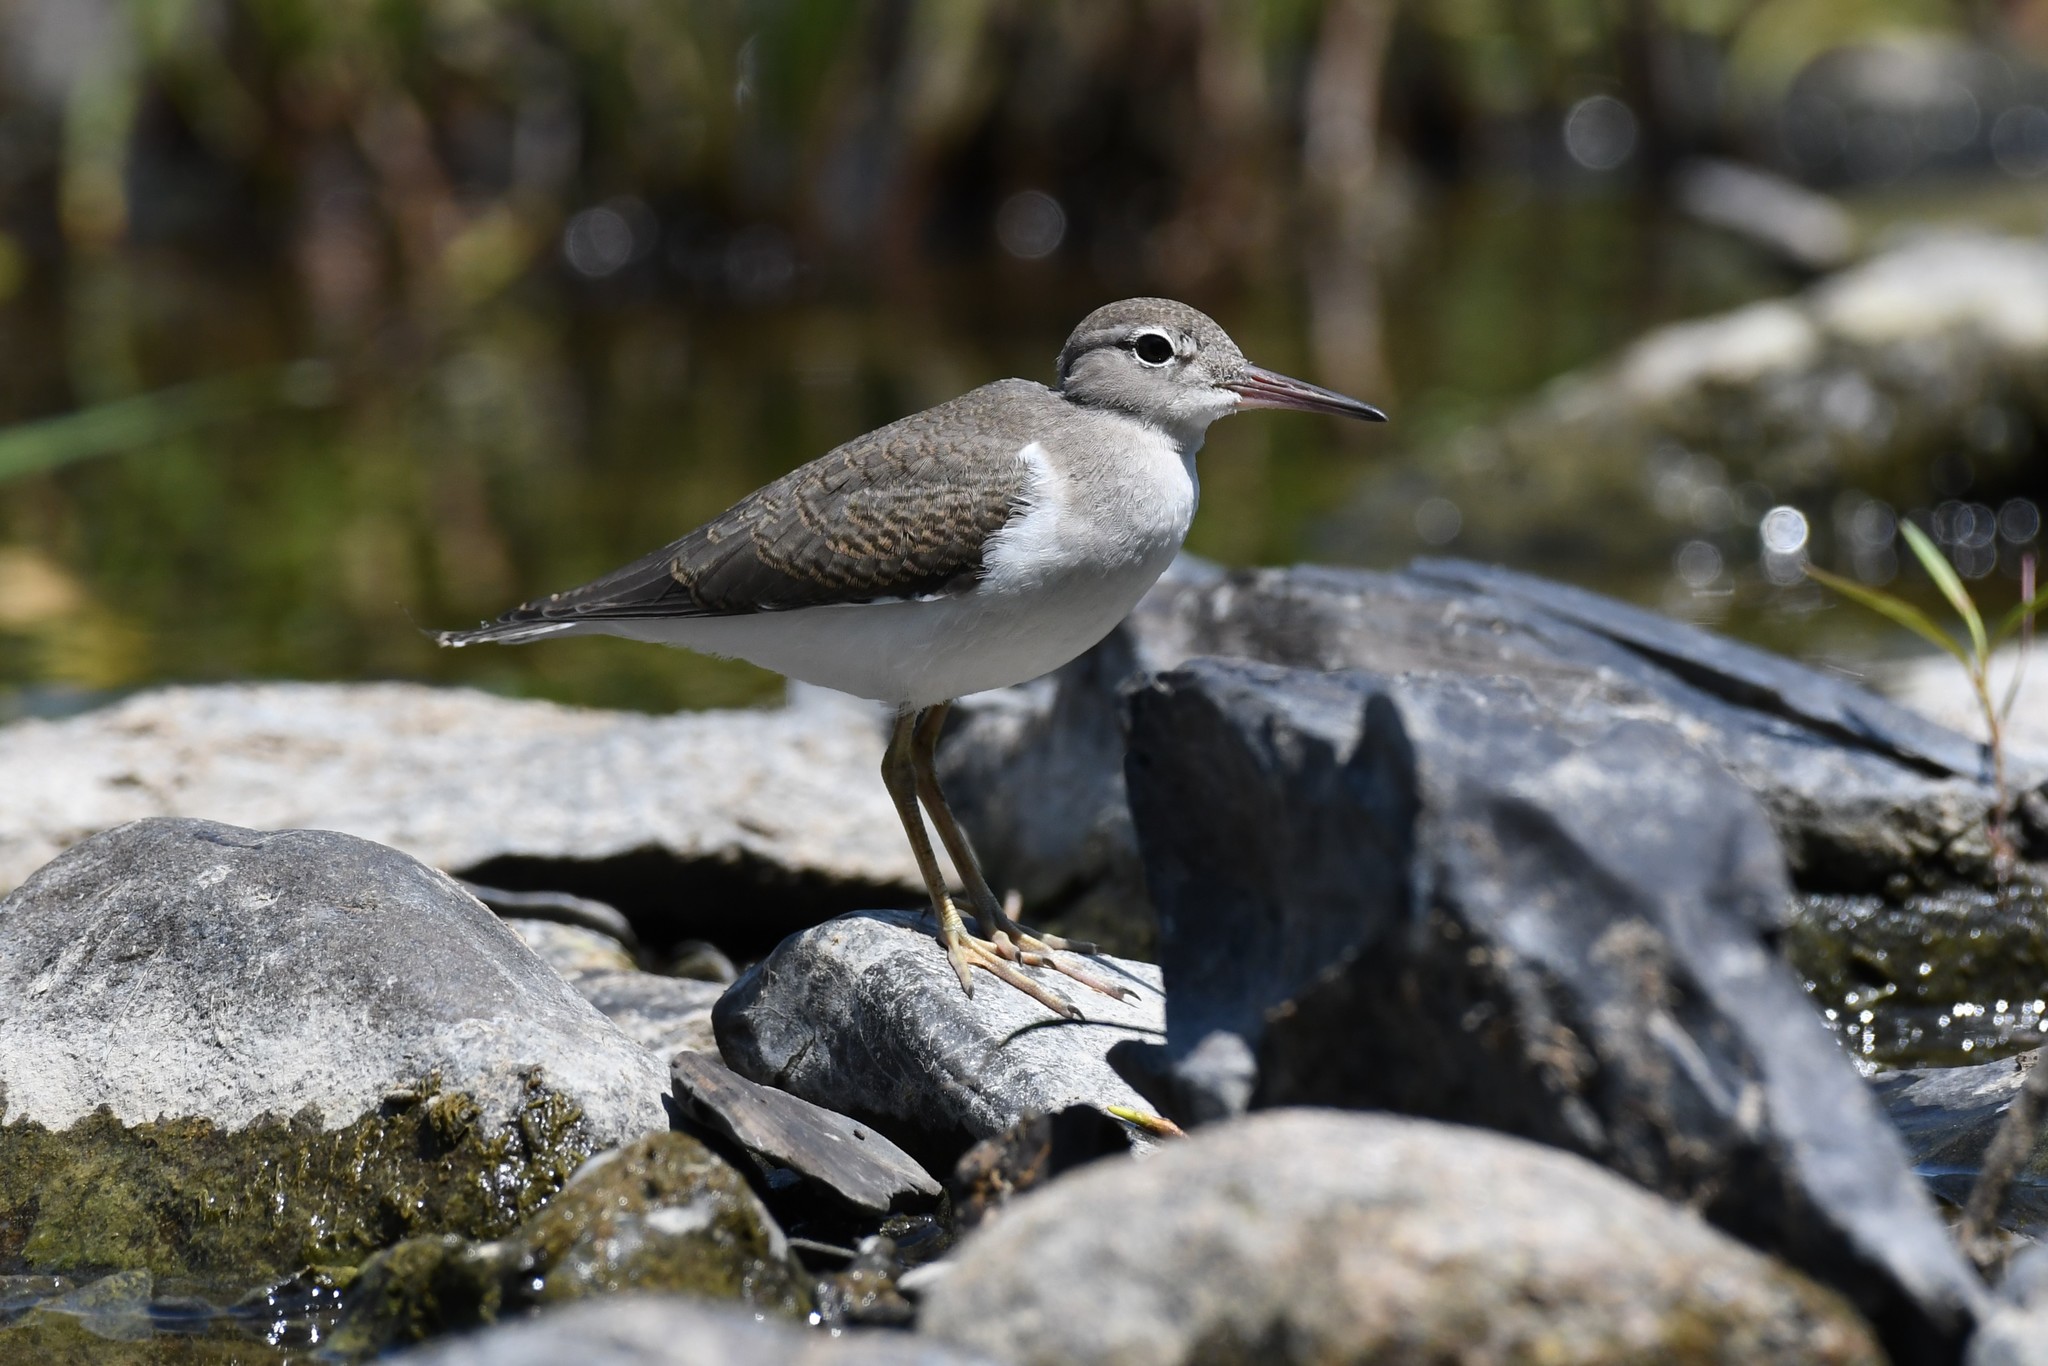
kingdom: Animalia
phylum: Chordata
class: Aves
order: Charadriiformes
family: Scolopacidae
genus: Actitis
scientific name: Actitis macularius
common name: Spotted sandpiper
